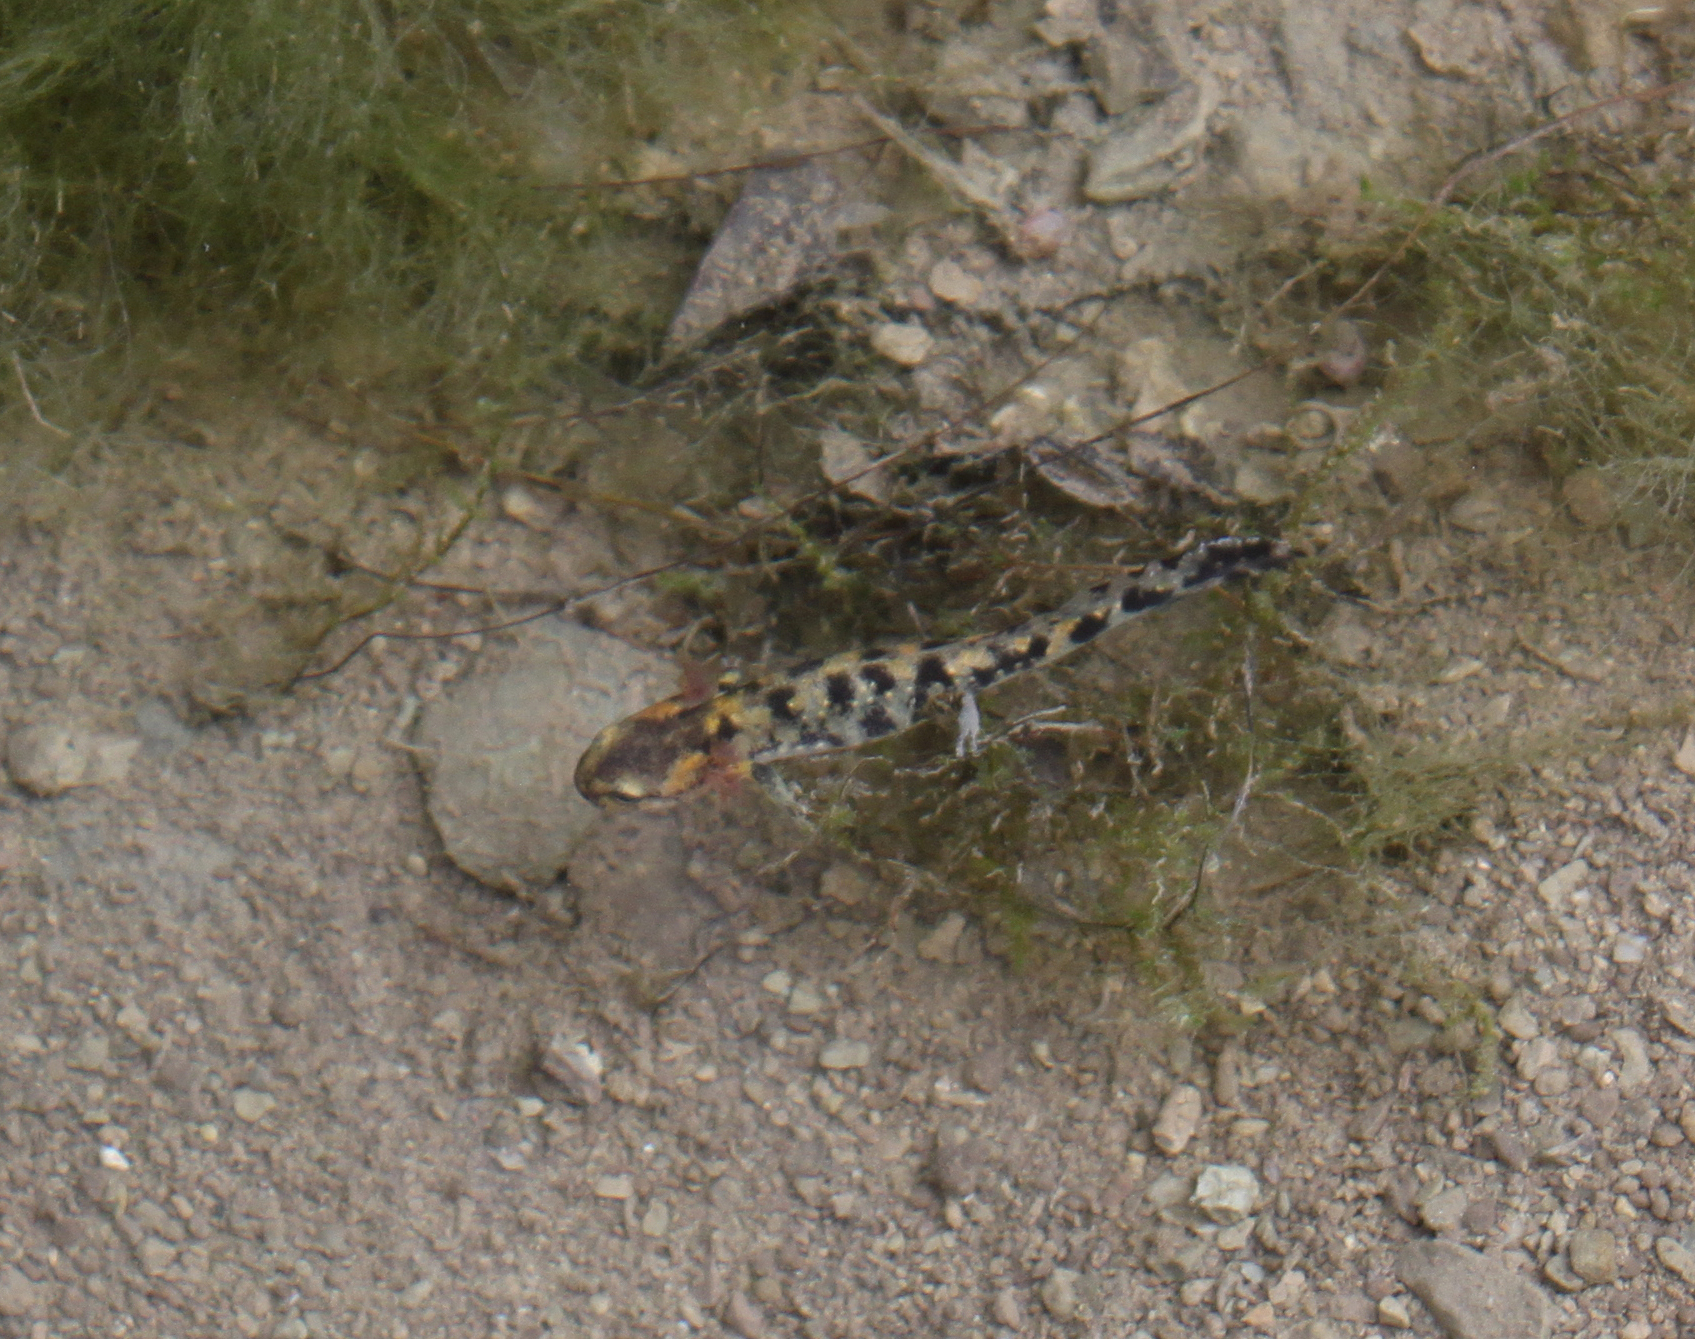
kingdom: Animalia
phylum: Chordata
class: Amphibia
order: Caudata
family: Salamandridae
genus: Salamandra
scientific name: Salamandra salamandra
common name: Fire salamander
